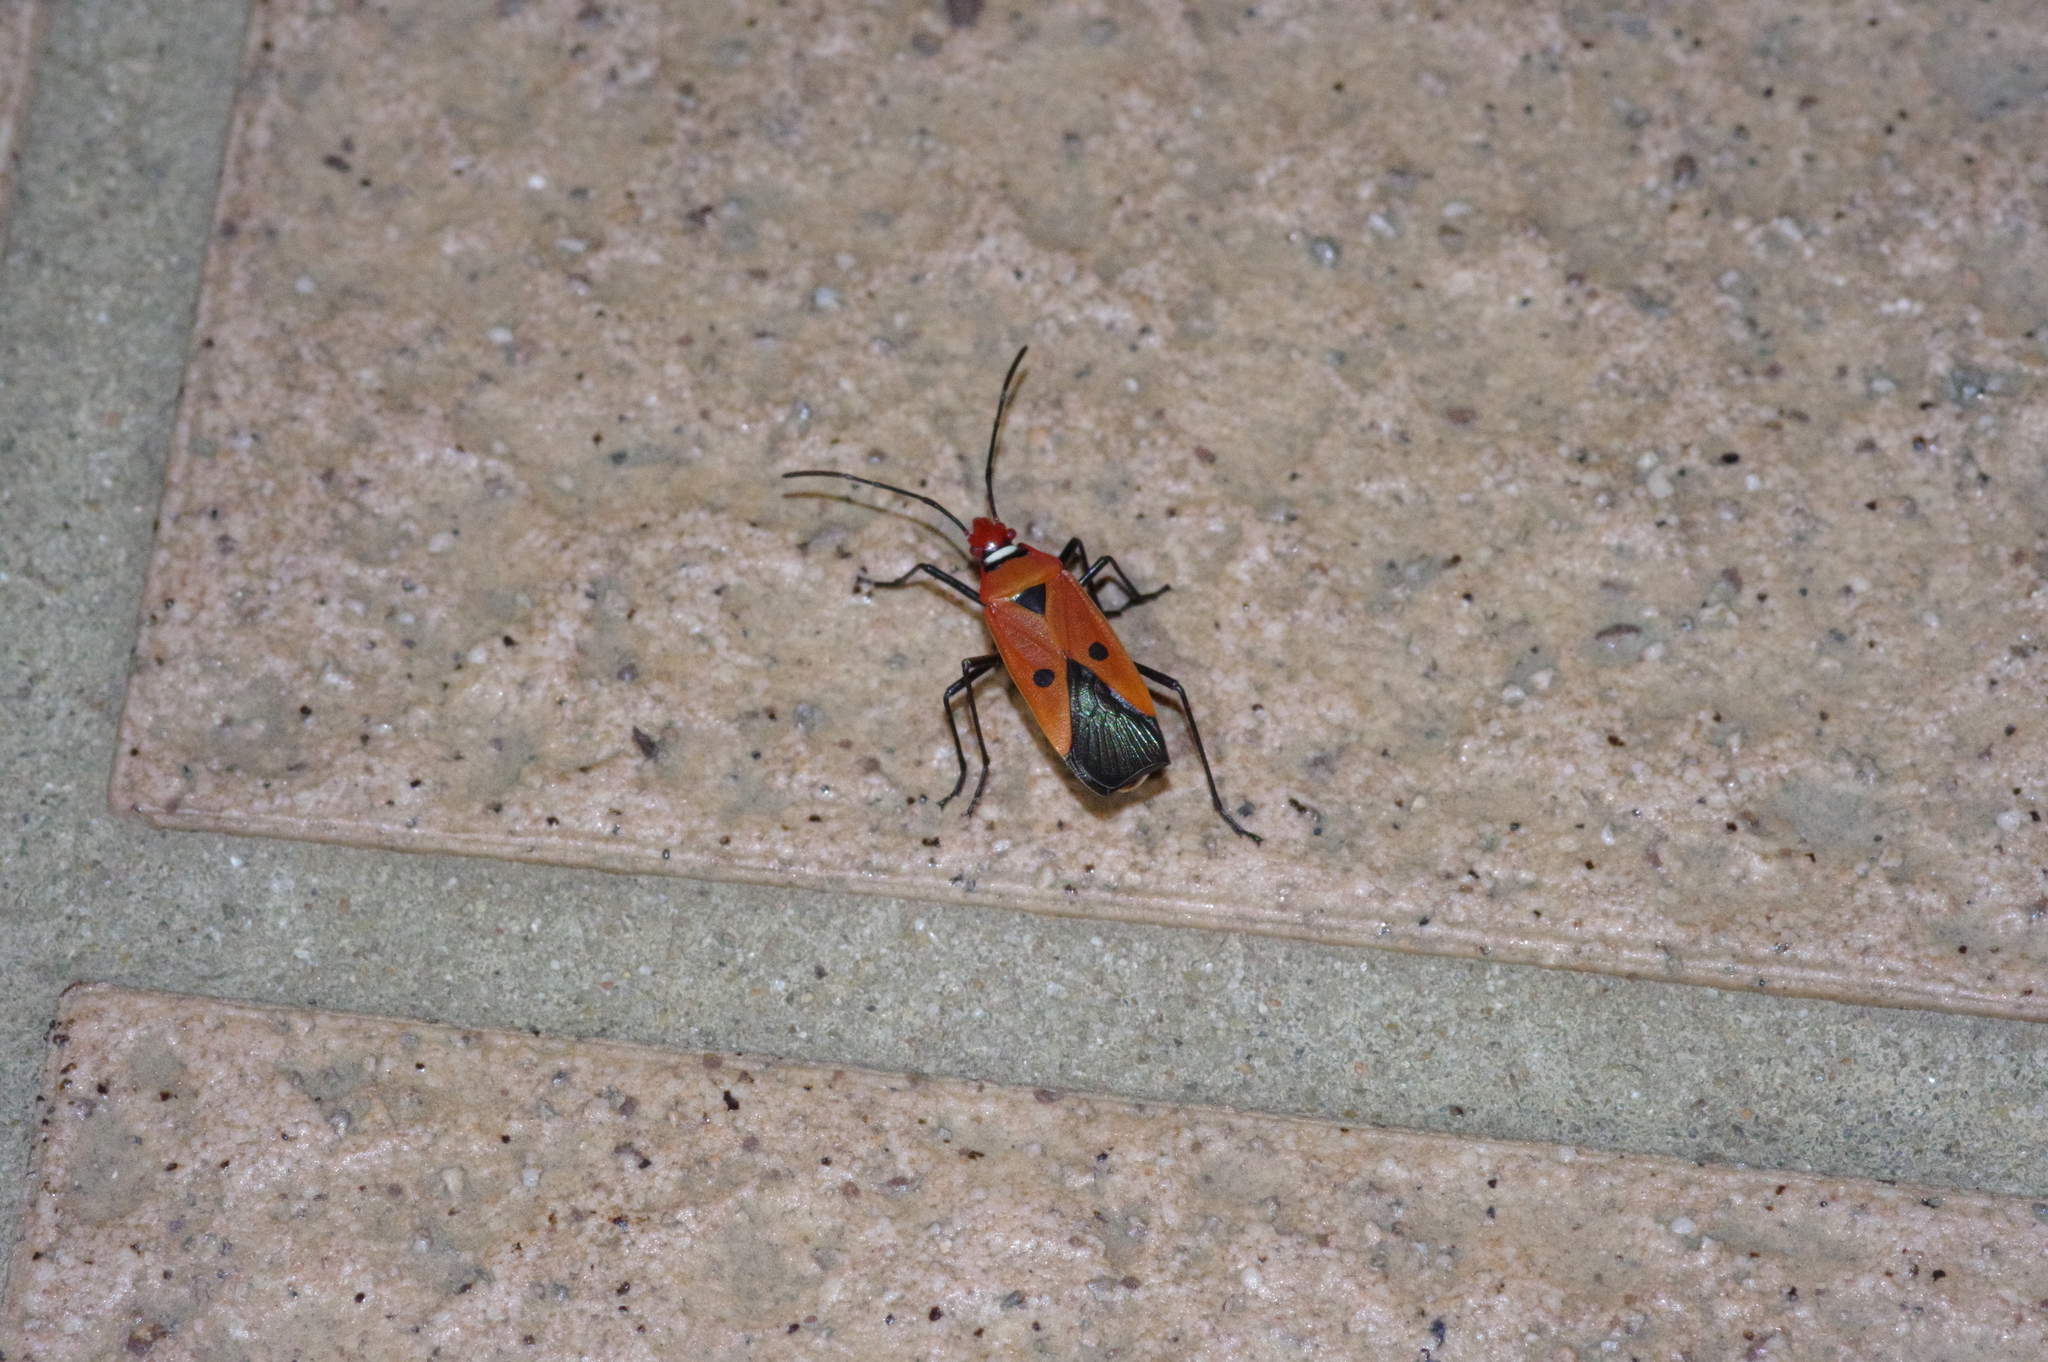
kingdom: Animalia
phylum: Arthropoda
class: Insecta
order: Hemiptera
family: Pyrrhocoridae
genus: Dysdercus
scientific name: Dysdercus cingulatus
